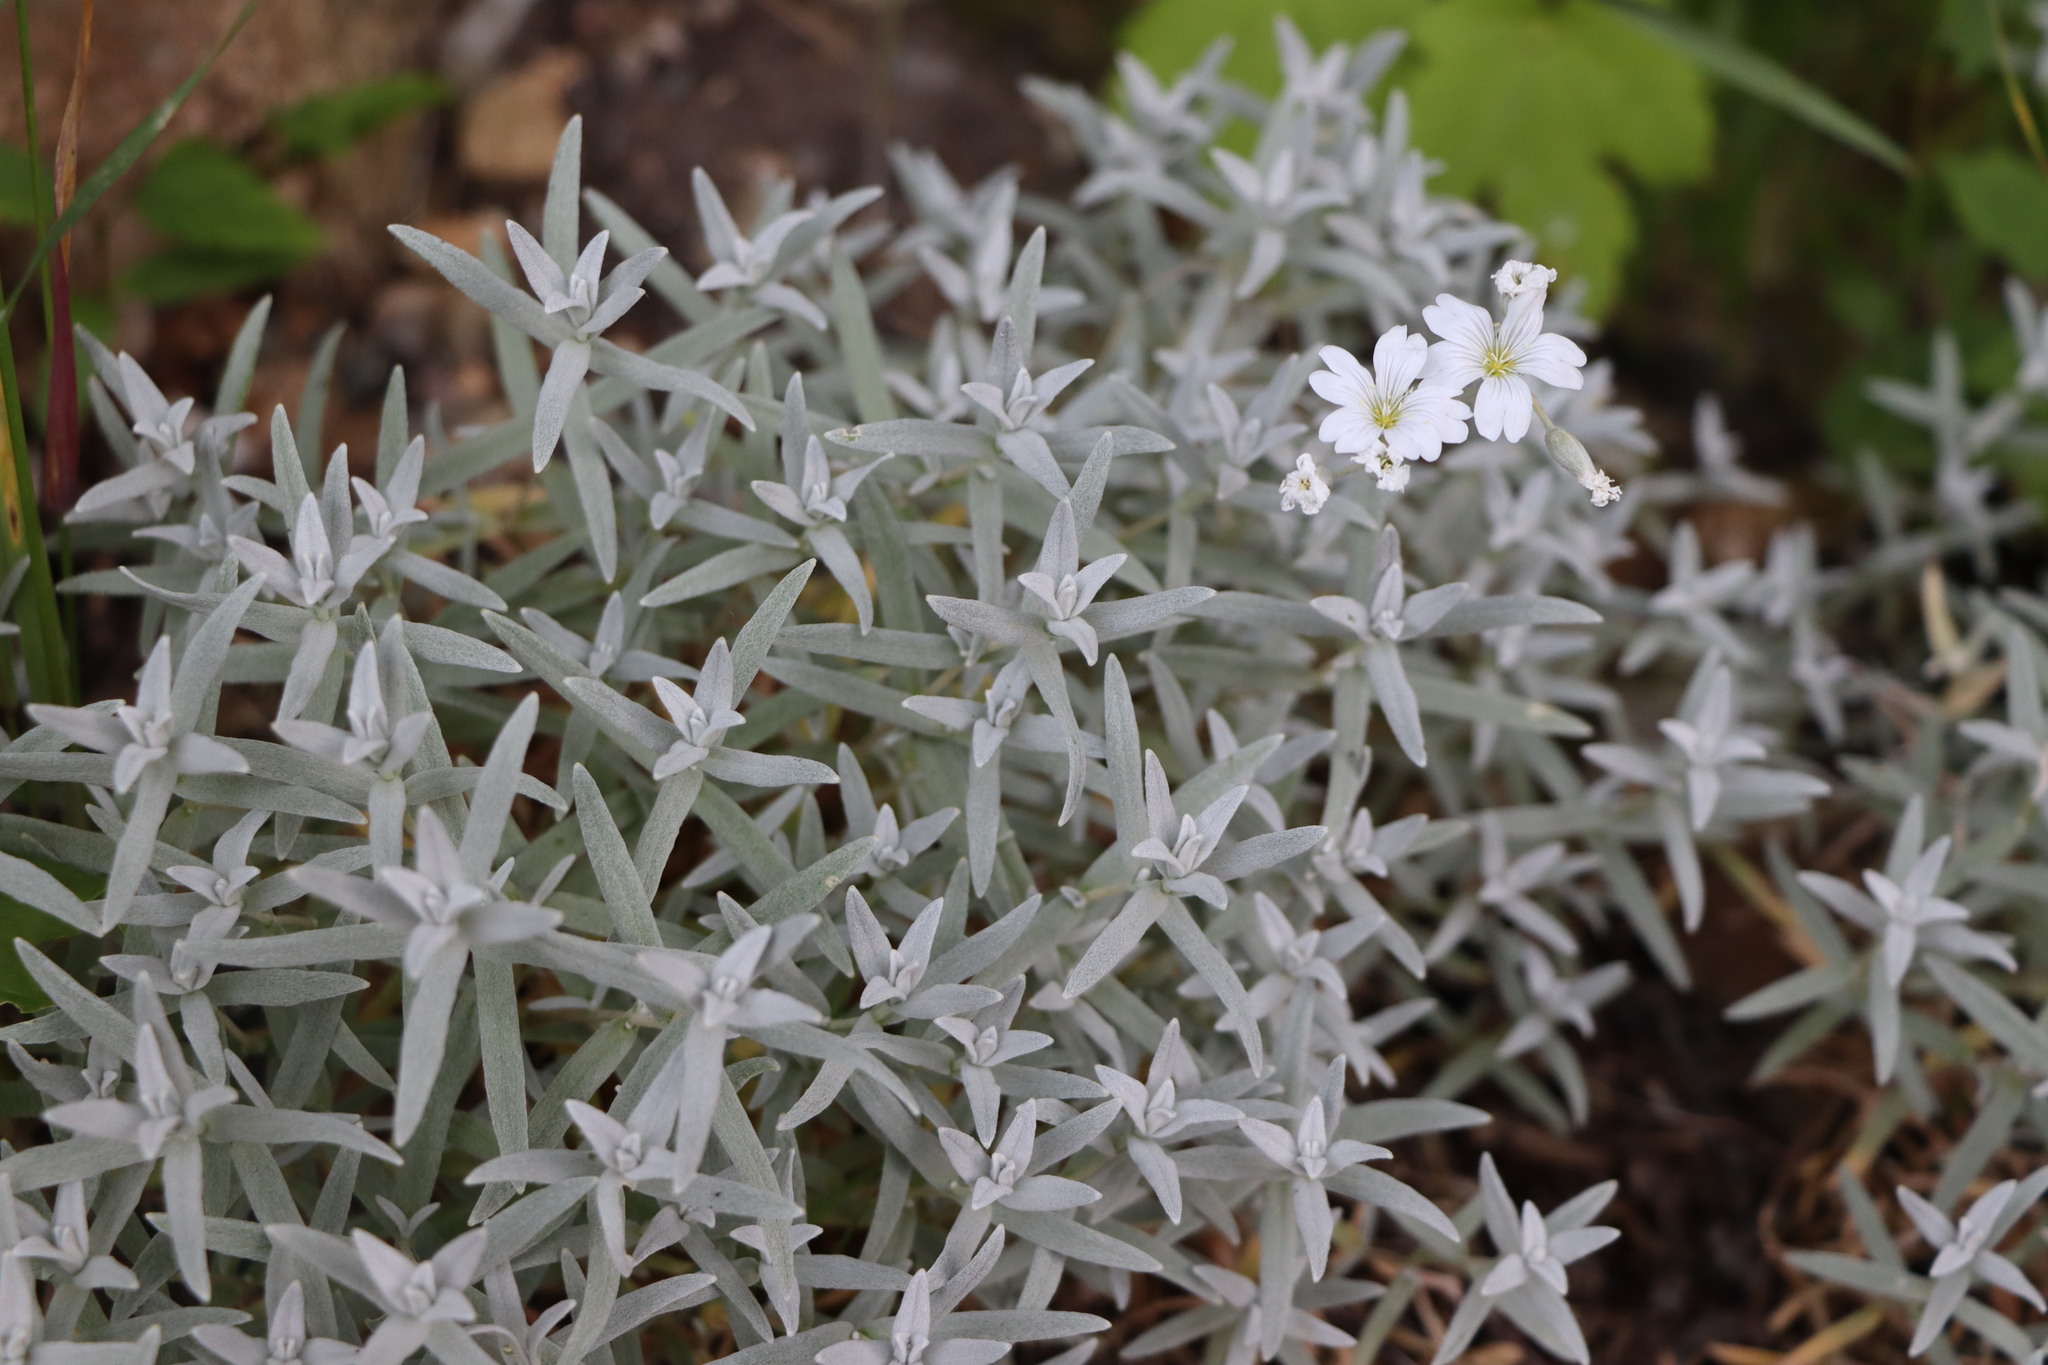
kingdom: Plantae
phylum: Tracheophyta
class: Magnoliopsida
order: Caryophyllales
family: Caryophyllaceae
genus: Cerastium
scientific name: Cerastium tomentosum
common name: Snow-in-summer
